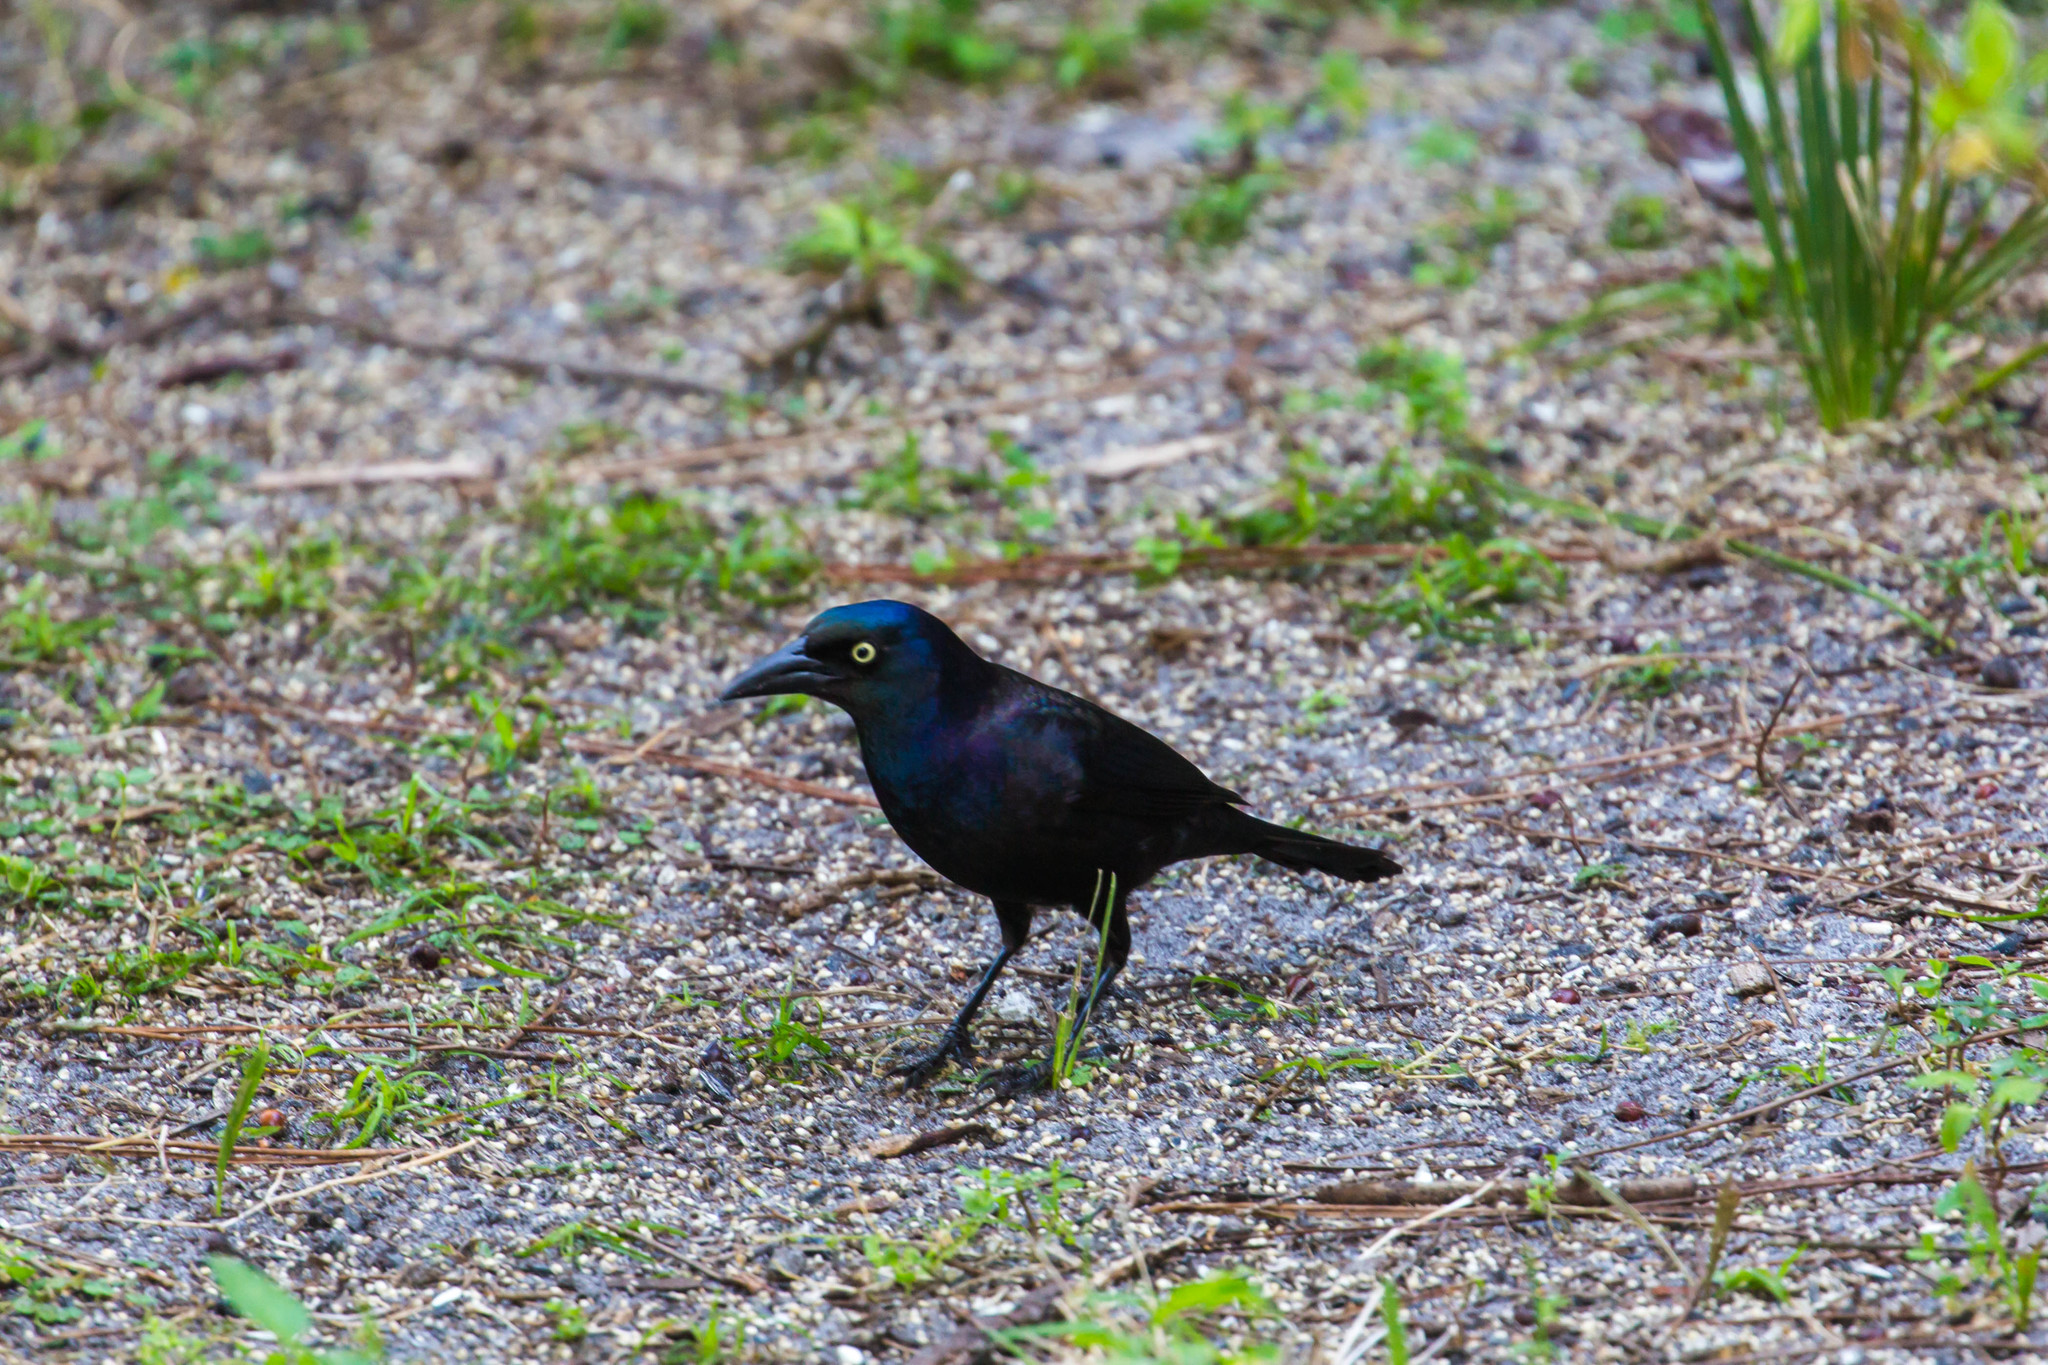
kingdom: Animalia
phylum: Chordata
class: Aves
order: Passeriformes
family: Icteridae
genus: Quiscalus
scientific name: Quiscalus quiscula
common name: Common grackle
